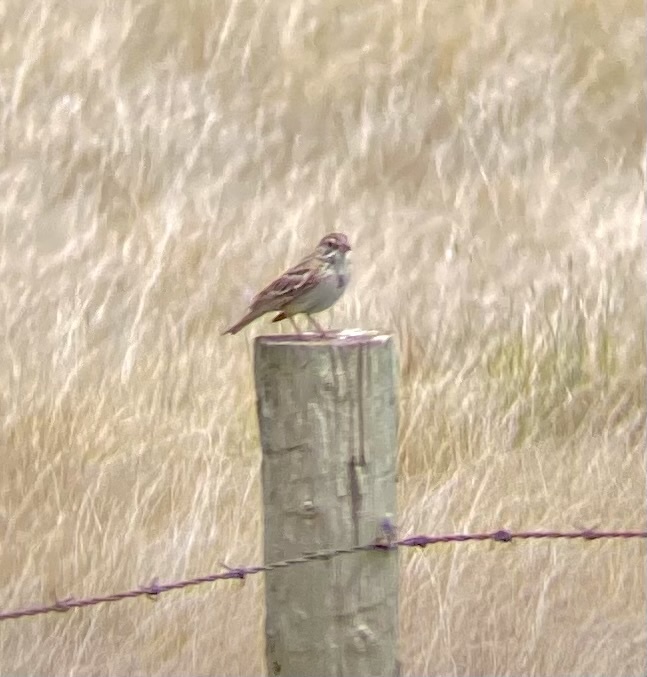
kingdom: Animalia
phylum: Chordata
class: Aves
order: Passeriformes
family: Passerellidae
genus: Centronyx
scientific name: Centronyx bairdii
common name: Baird's sparrow
